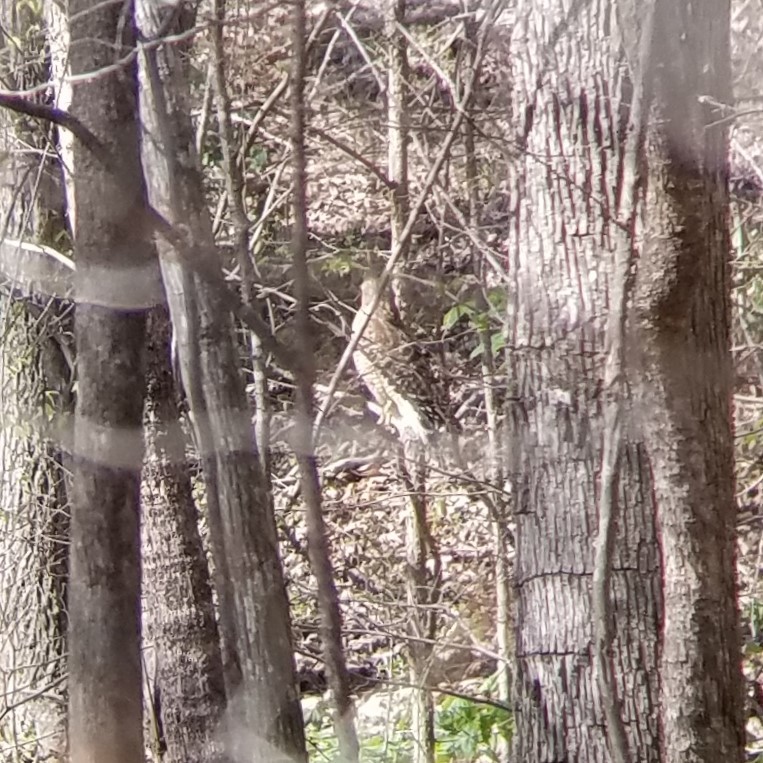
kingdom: Animalia
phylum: Chordata
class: Aves
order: Accipitriformes
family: Accipitridae
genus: Buteo
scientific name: Buteo lineatus
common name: Red-shouldered hawk
